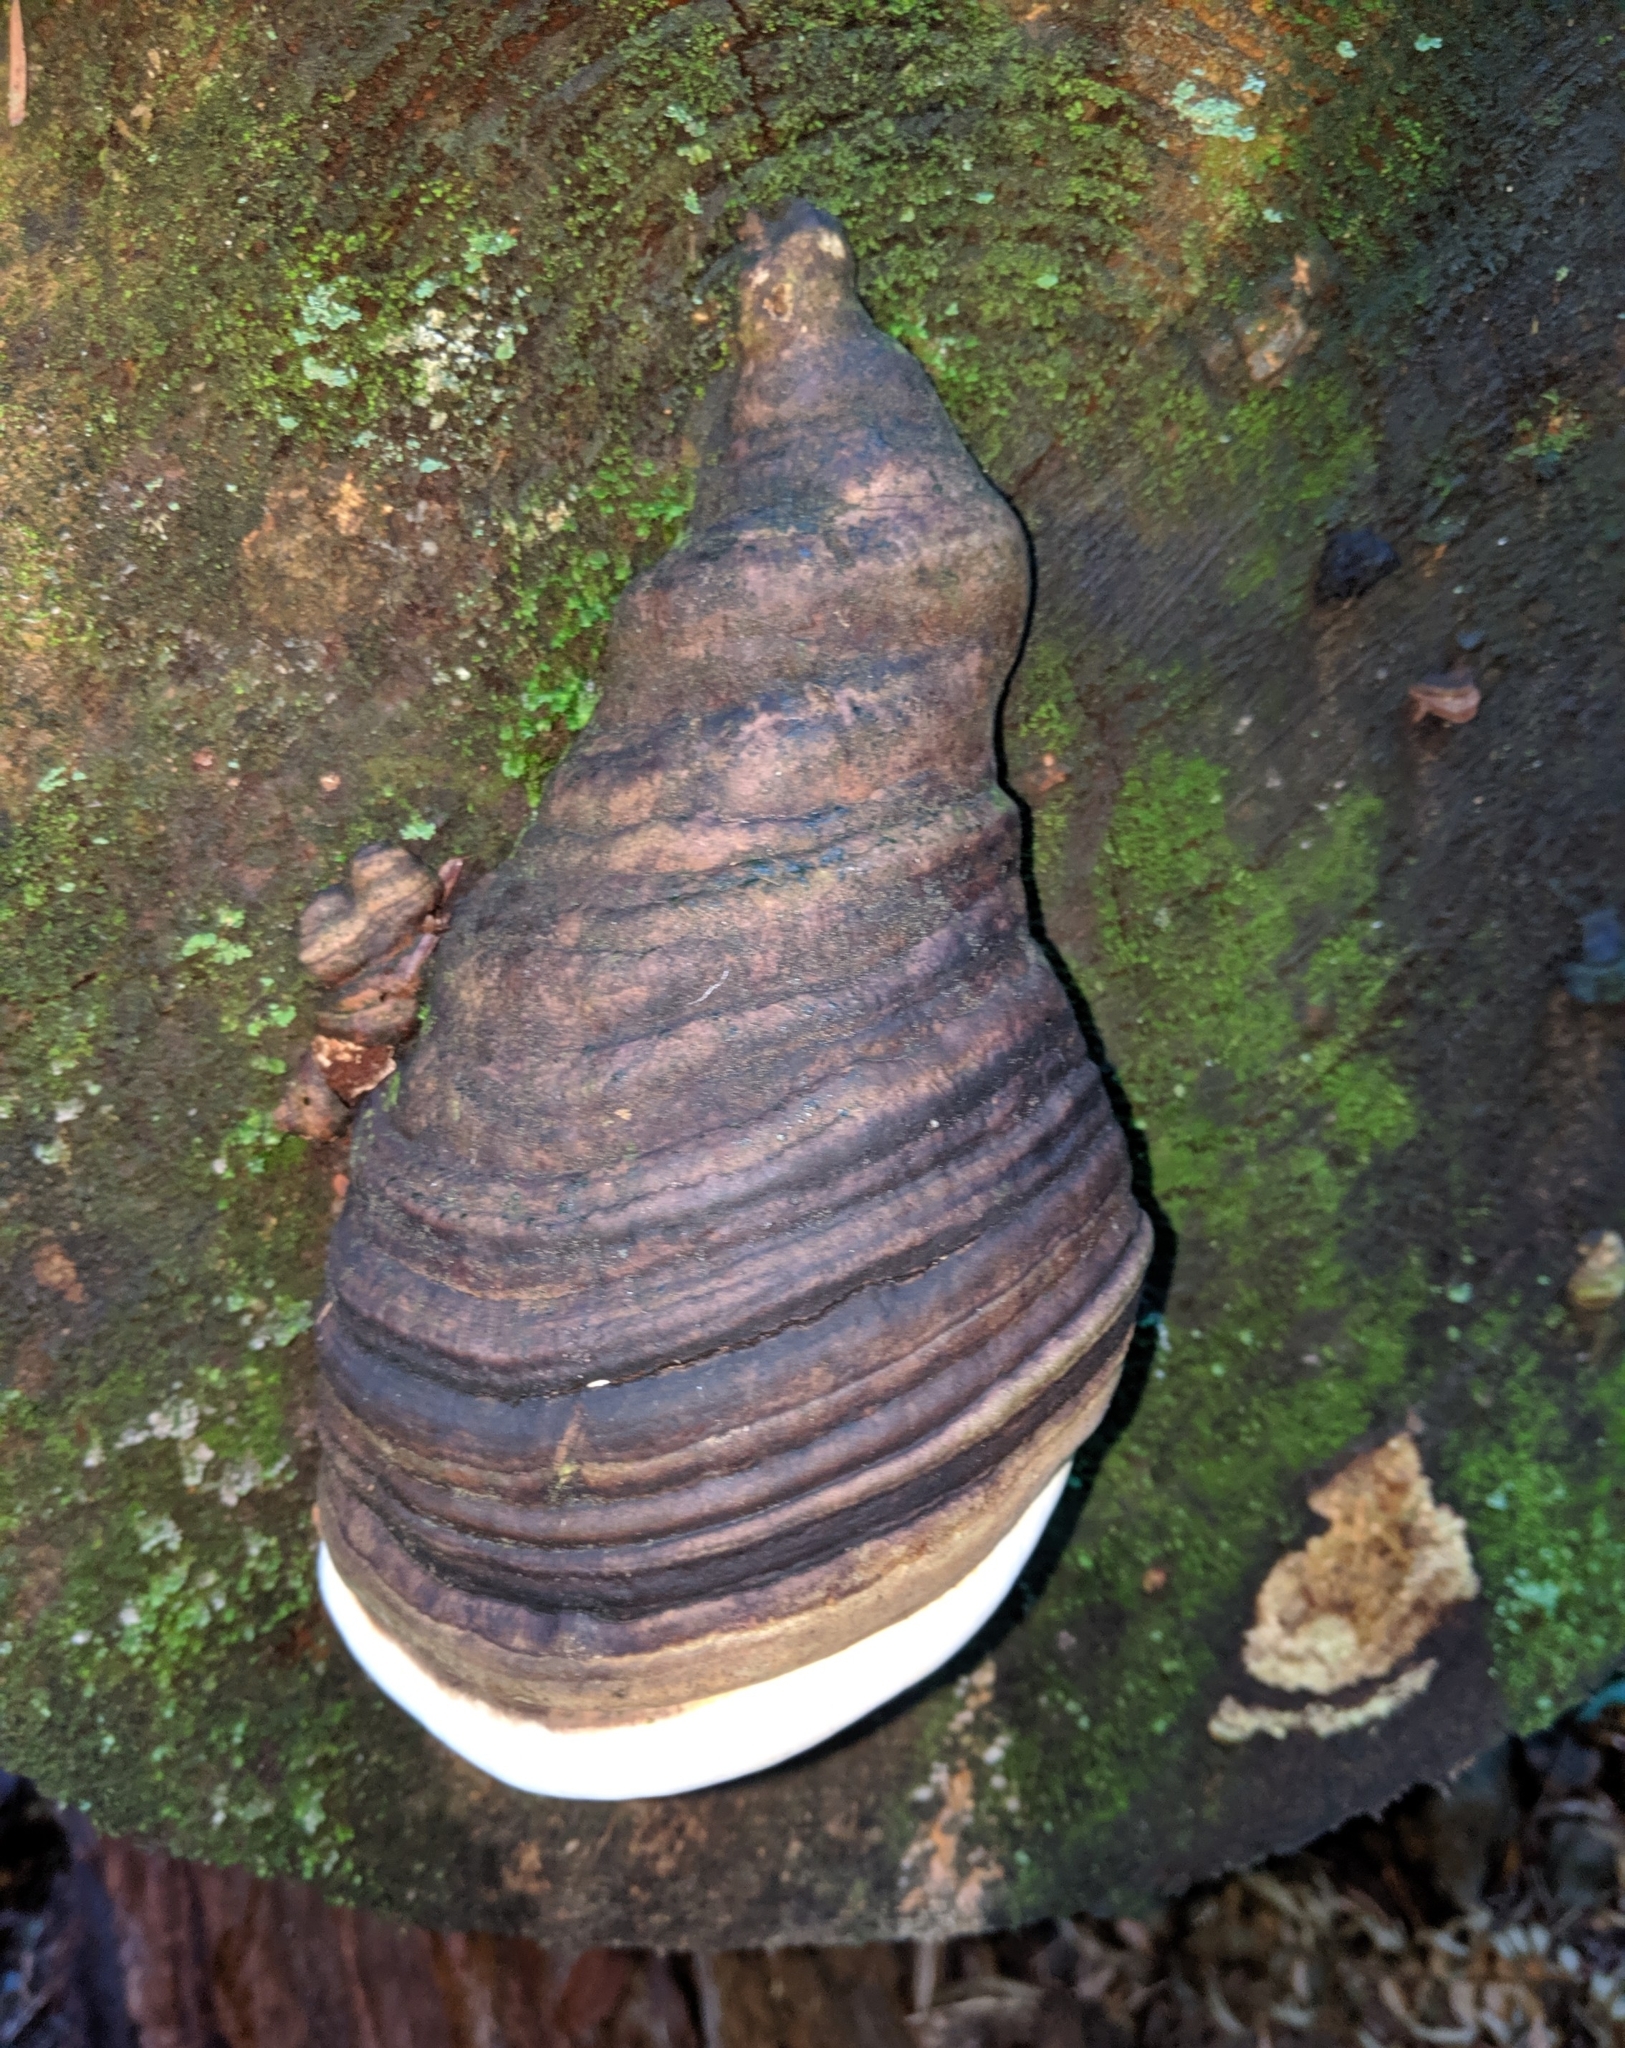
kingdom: Fungi
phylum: Basidiomycota
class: Agaricomycetes
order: Polyporales
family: Polyporaceae
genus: Fomes
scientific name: Fomes fomentarius
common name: Hoof fungus
